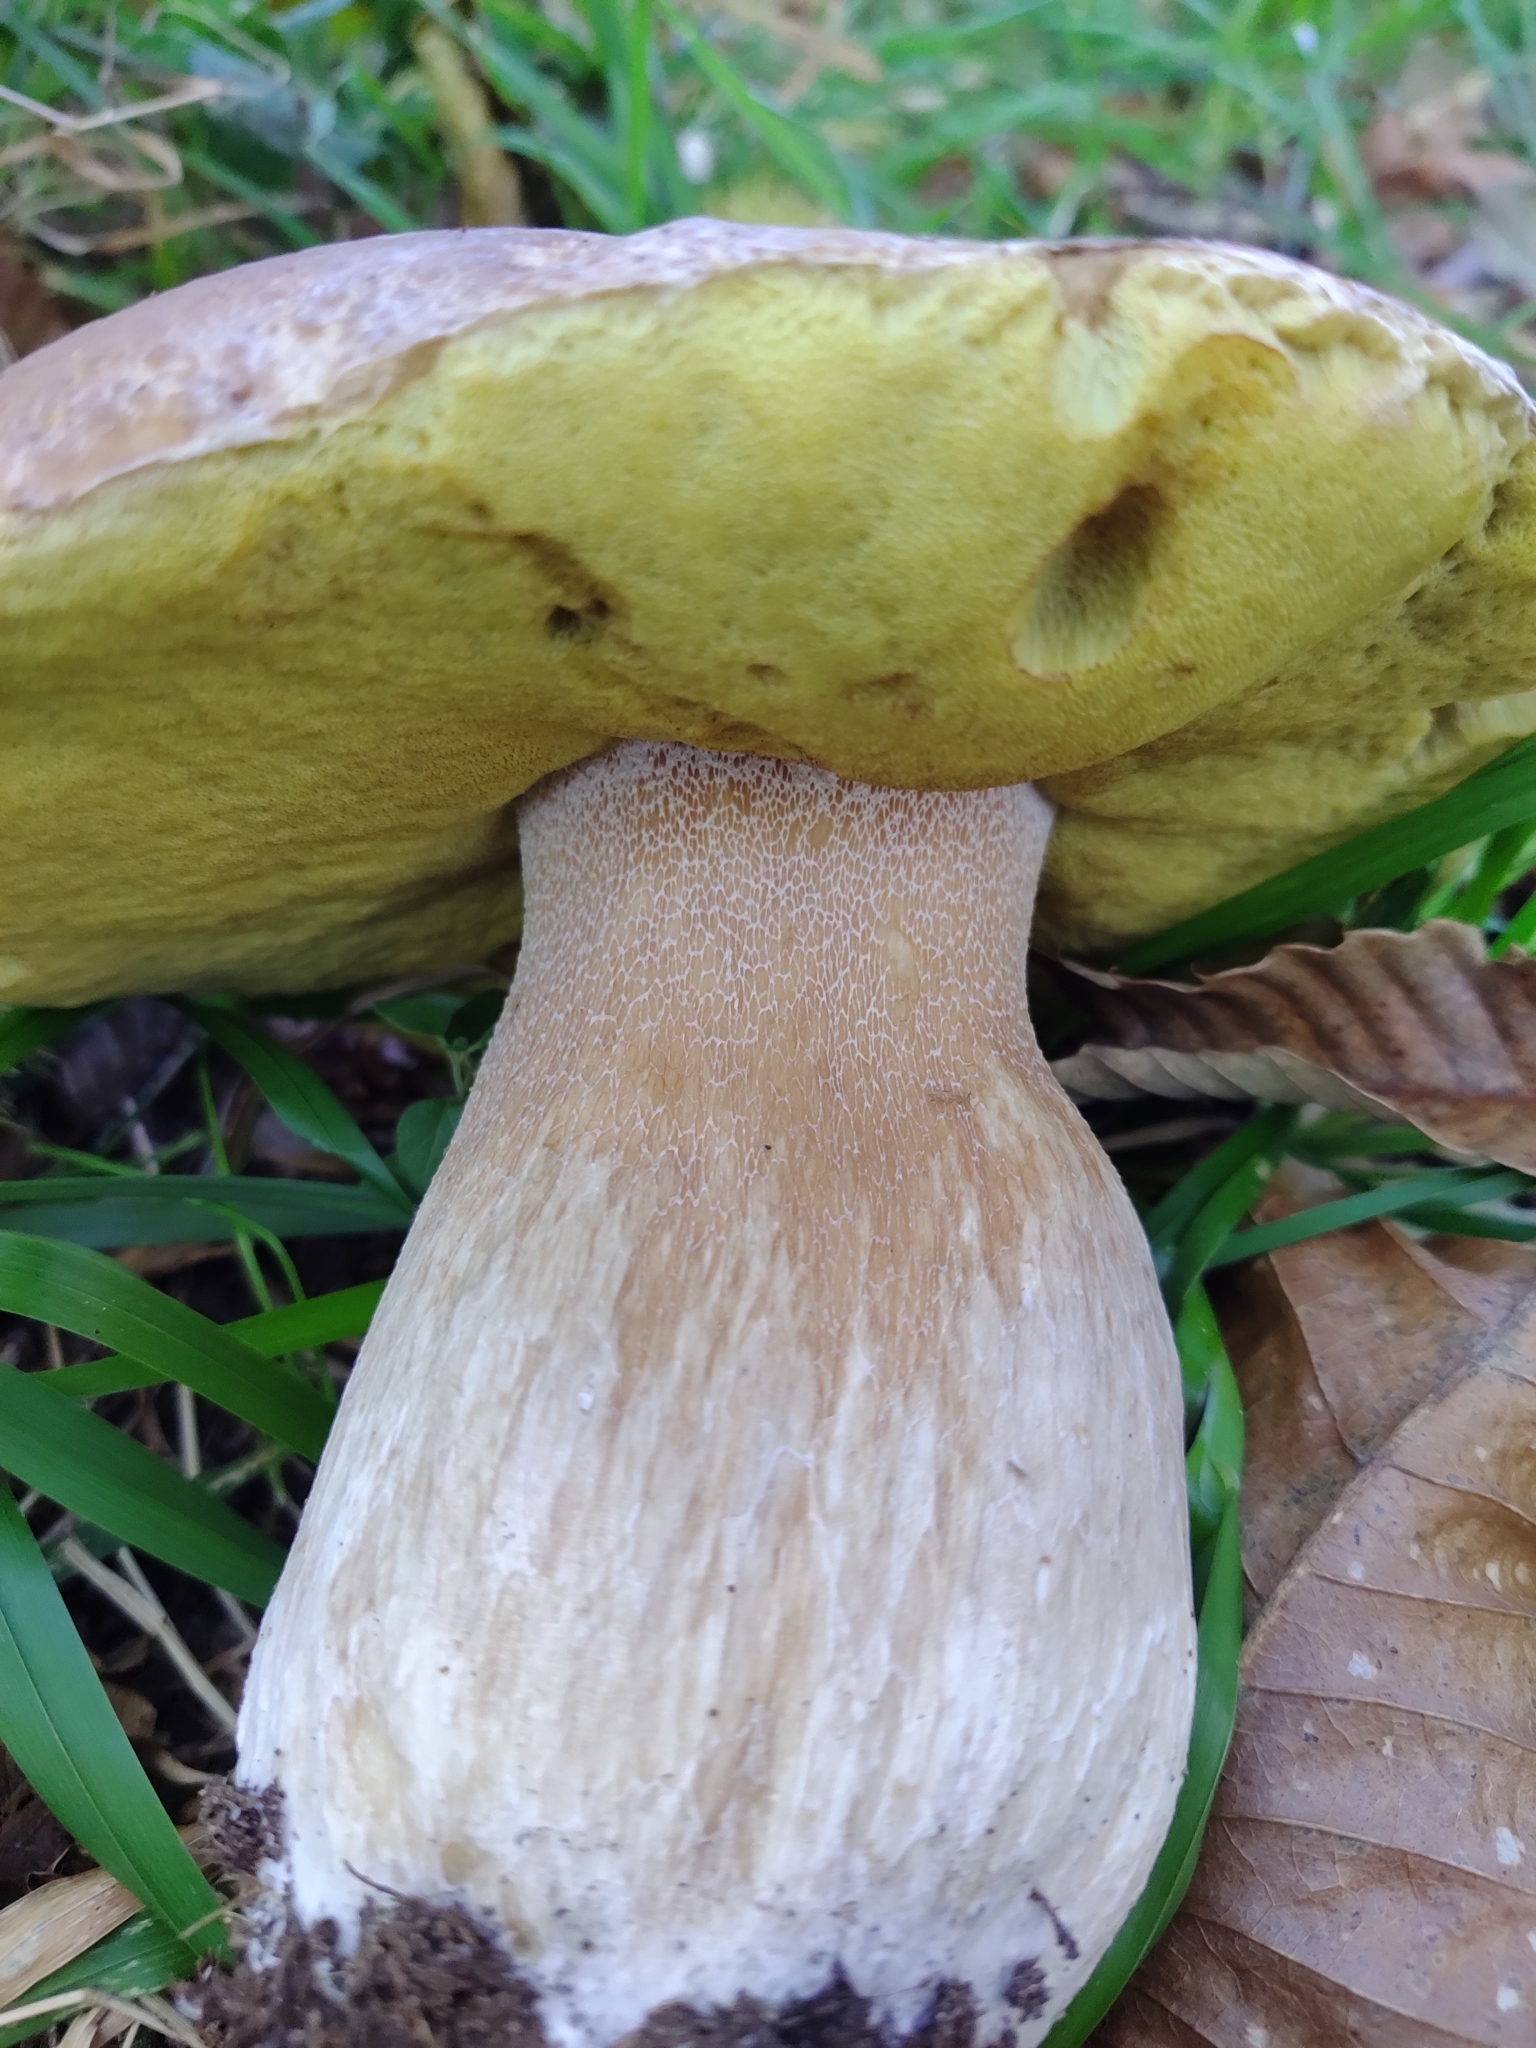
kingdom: Fungi
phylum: Basidiomycota
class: Agaricomycetes
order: Boletales
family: Boletaceae
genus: Boletus
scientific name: Boletus edulis
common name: Cep
